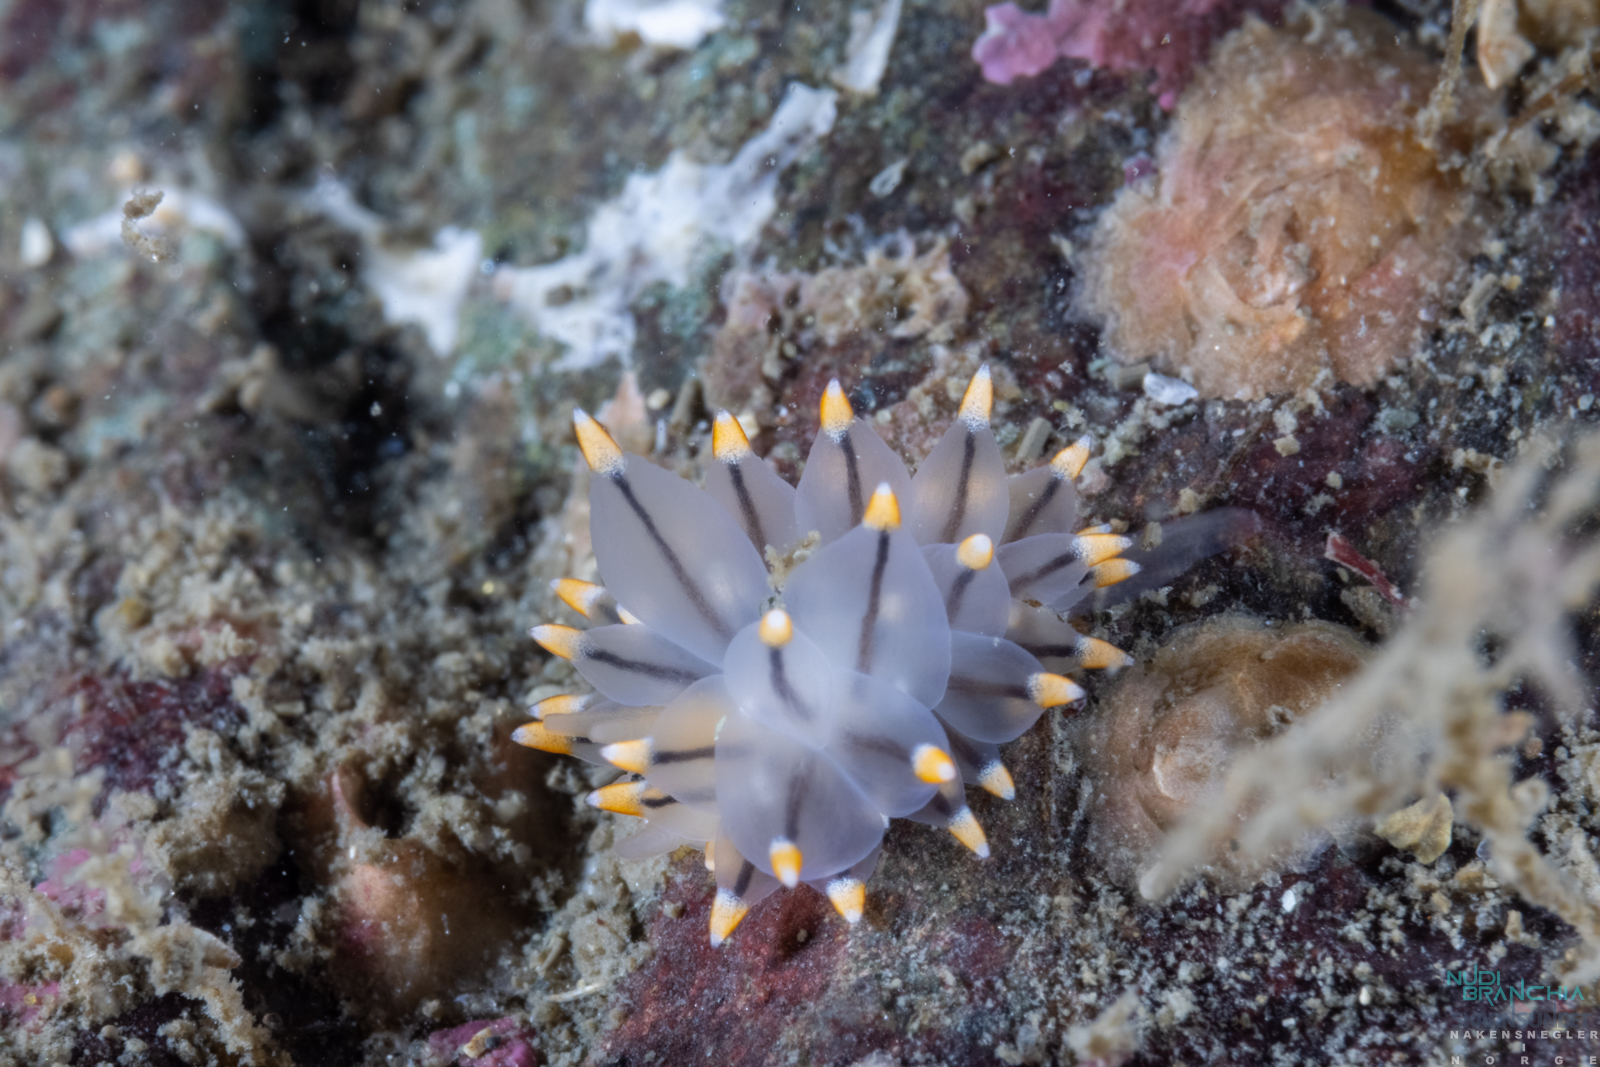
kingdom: Animalia
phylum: Mollusca
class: Gastropoda
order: Nudibranchia
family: Eubranchidae
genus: Eubranchus
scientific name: Eubranchus tricolor
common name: Painted balloon aeolis
